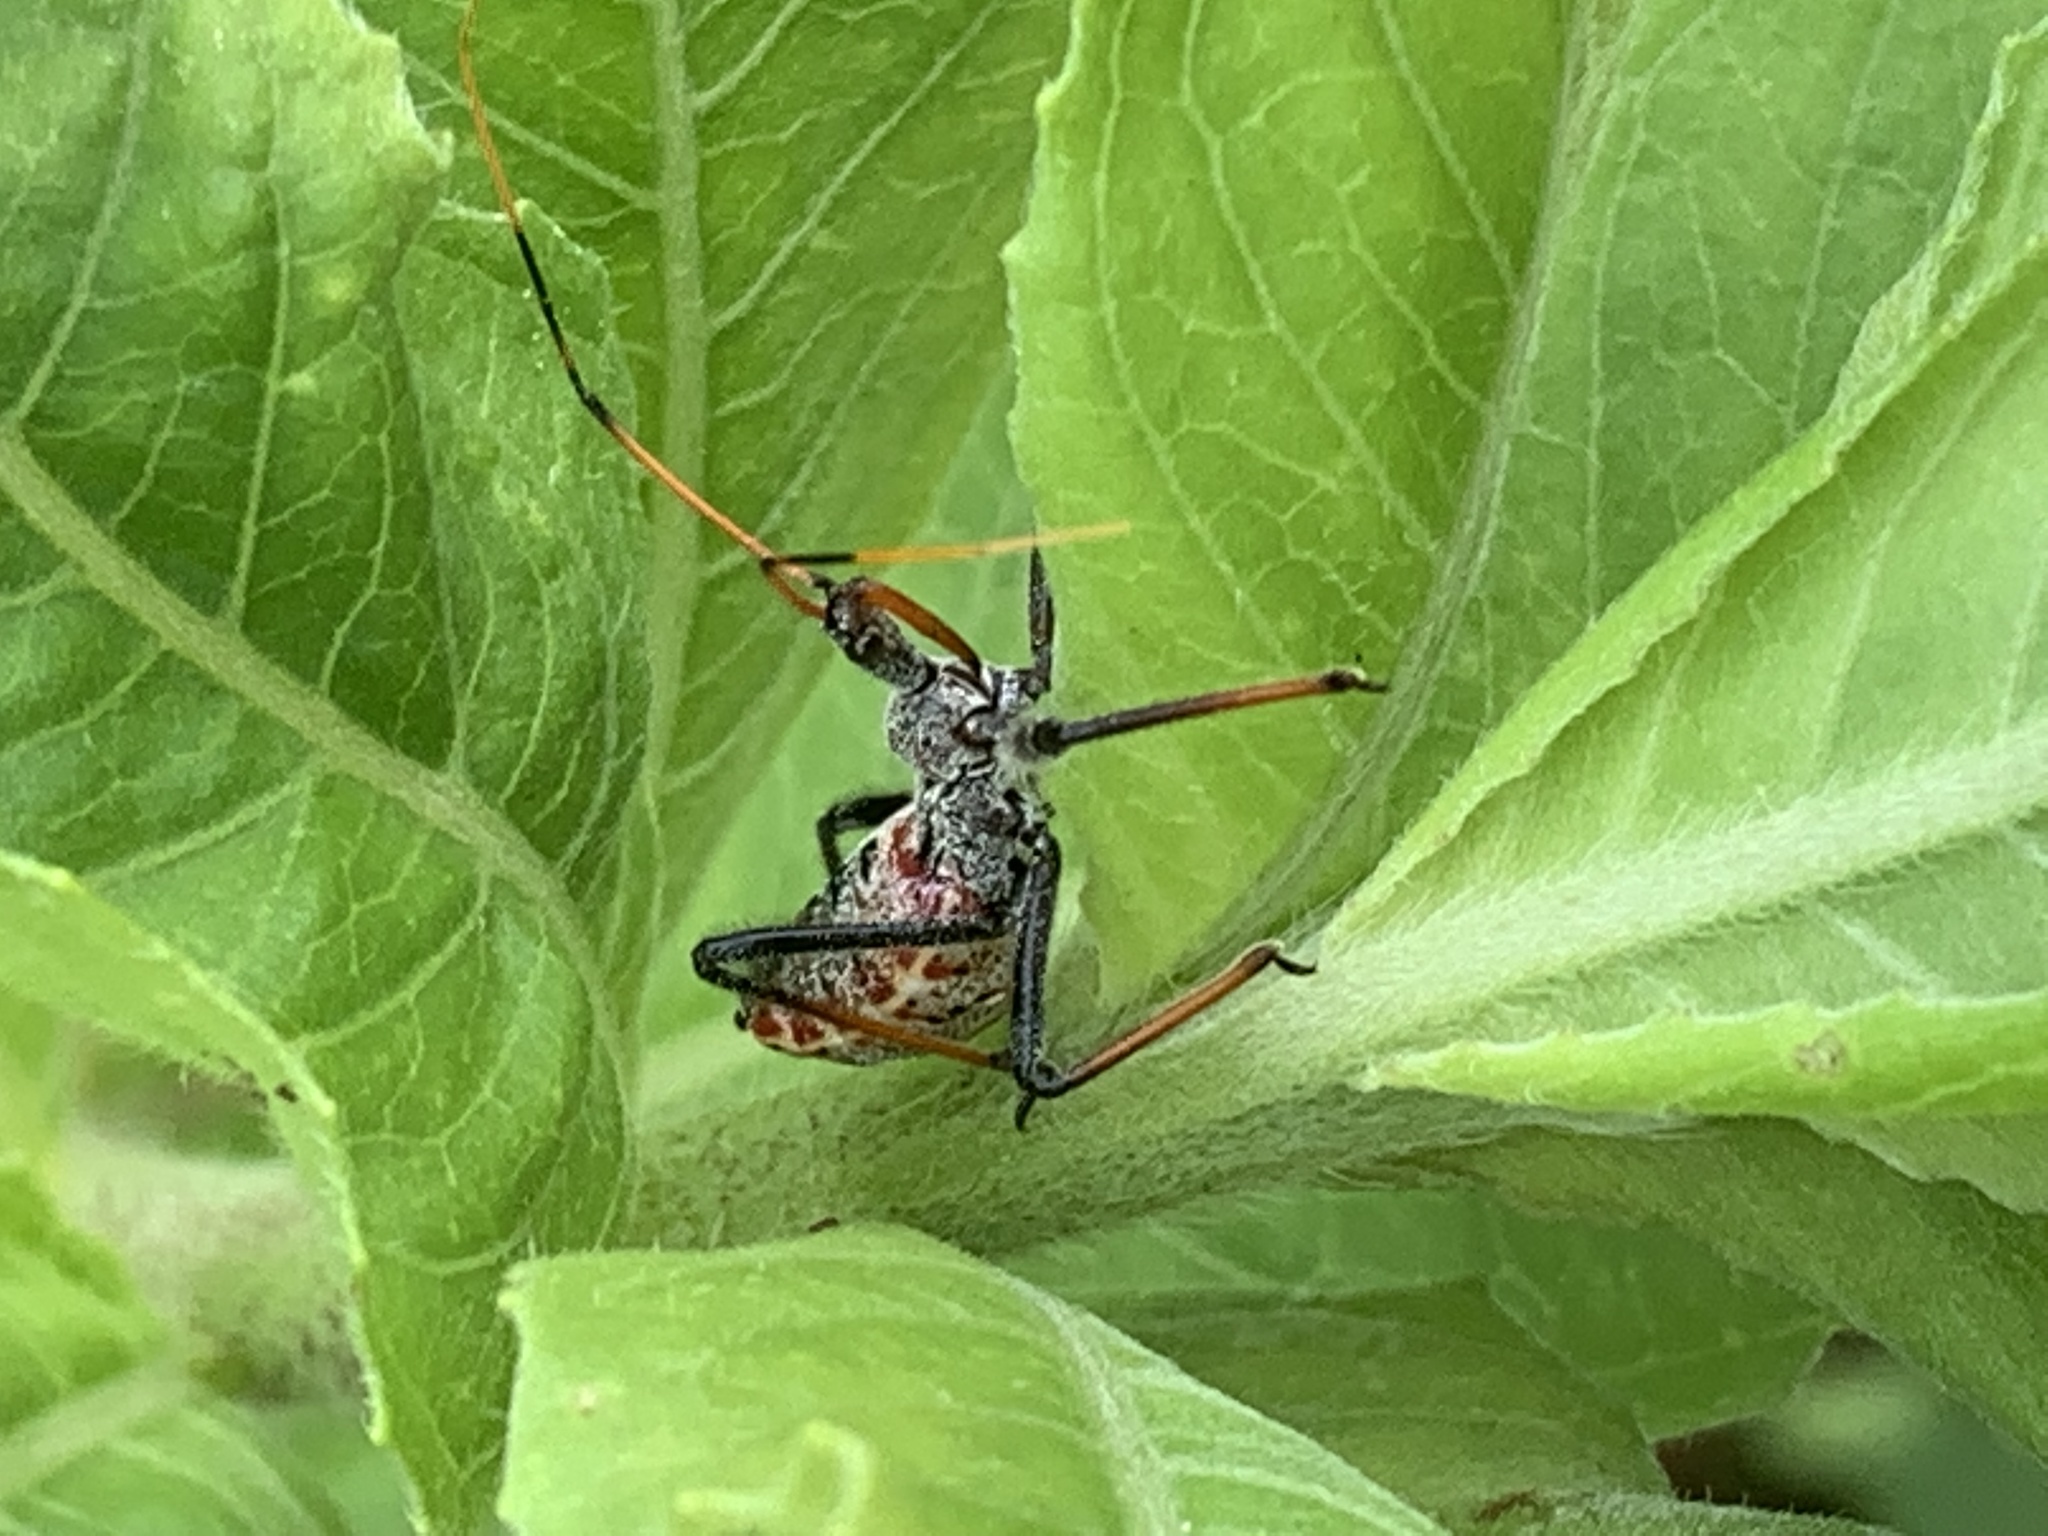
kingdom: Animalia
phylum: Arthropoda
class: Insecta
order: Hemiptera
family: Reduviidae
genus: Arilus
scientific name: Arilus cristatus
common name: North american wheel bug
